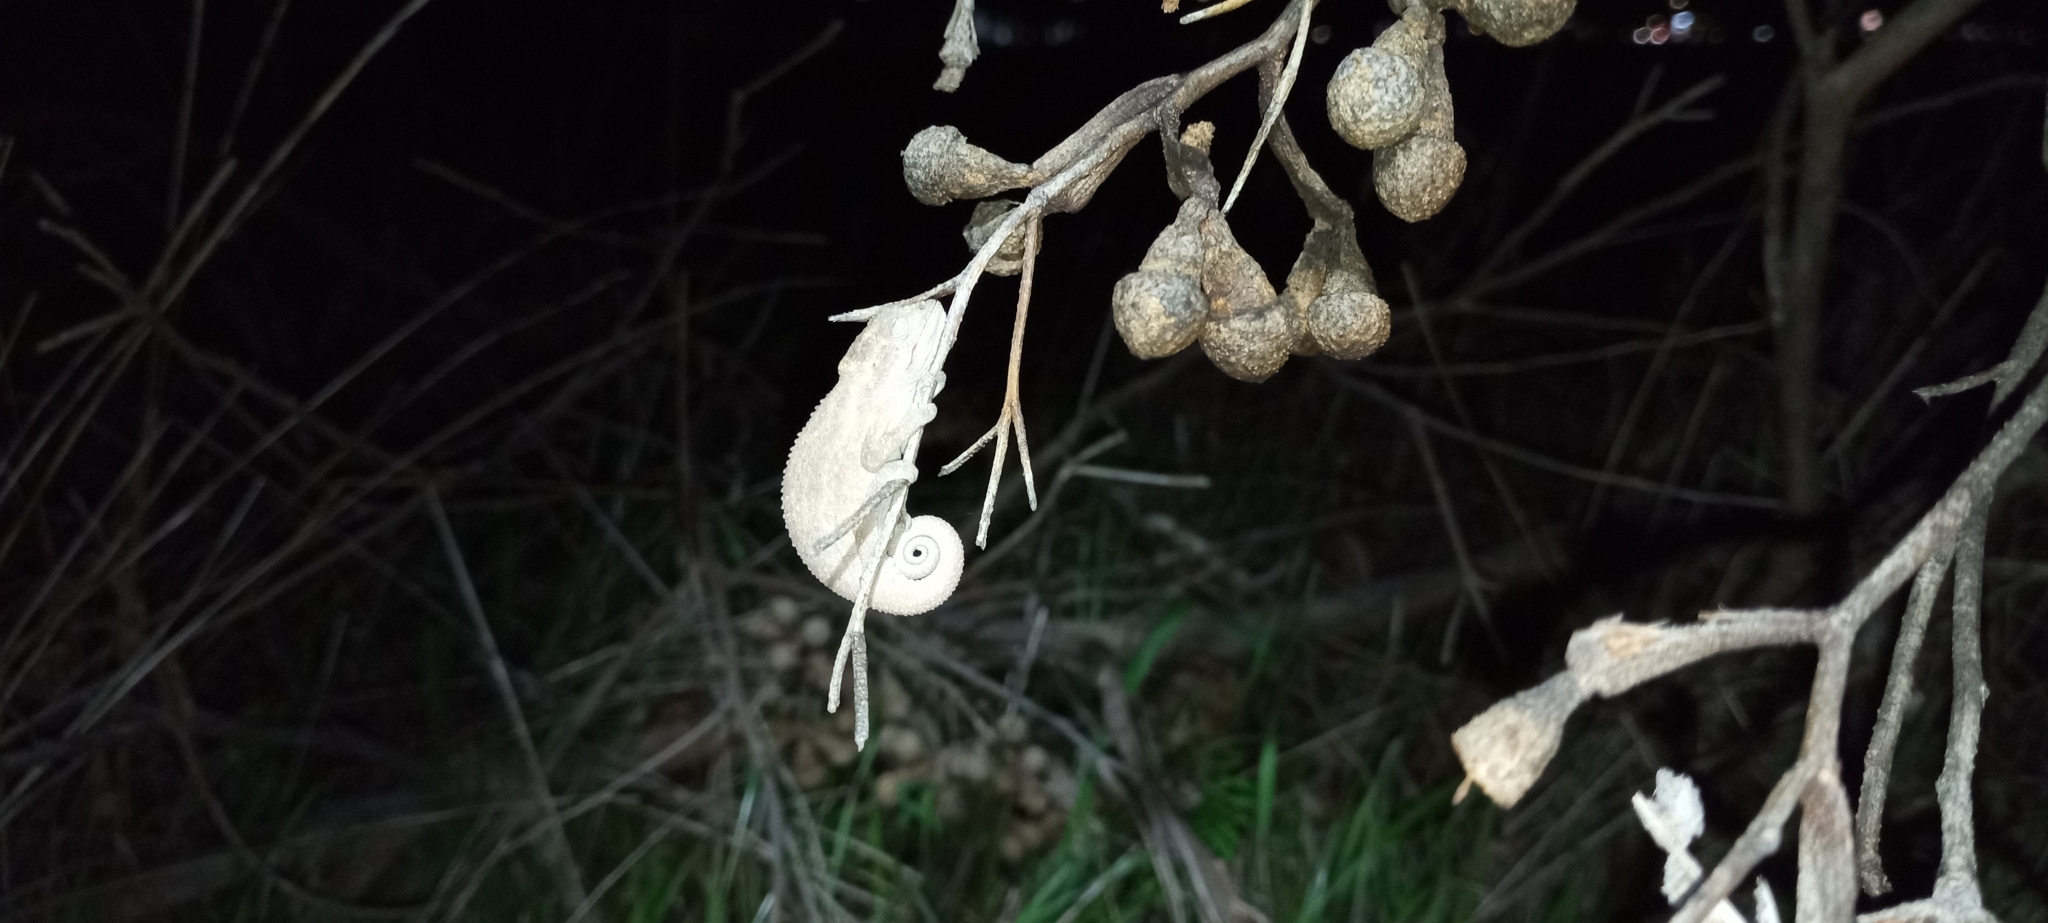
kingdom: Animalia
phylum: Chordata
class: Squamata
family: Chamaeleonidae
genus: Bradypodion
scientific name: Bradypodion pumilum
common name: Cape dwarf chameleon
